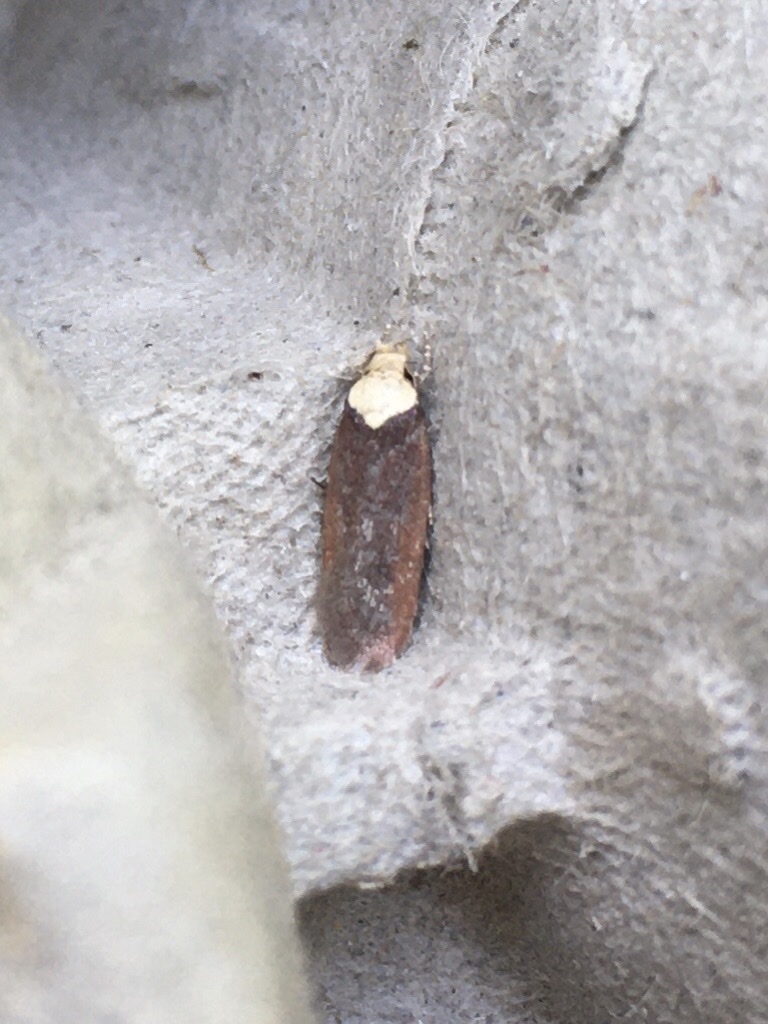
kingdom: Animalia
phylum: Arthropoda
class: Insecta
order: Lepidoptera
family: Depressariidae
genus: Depressaria
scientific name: Depressaria depressana
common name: Lost flat-body
